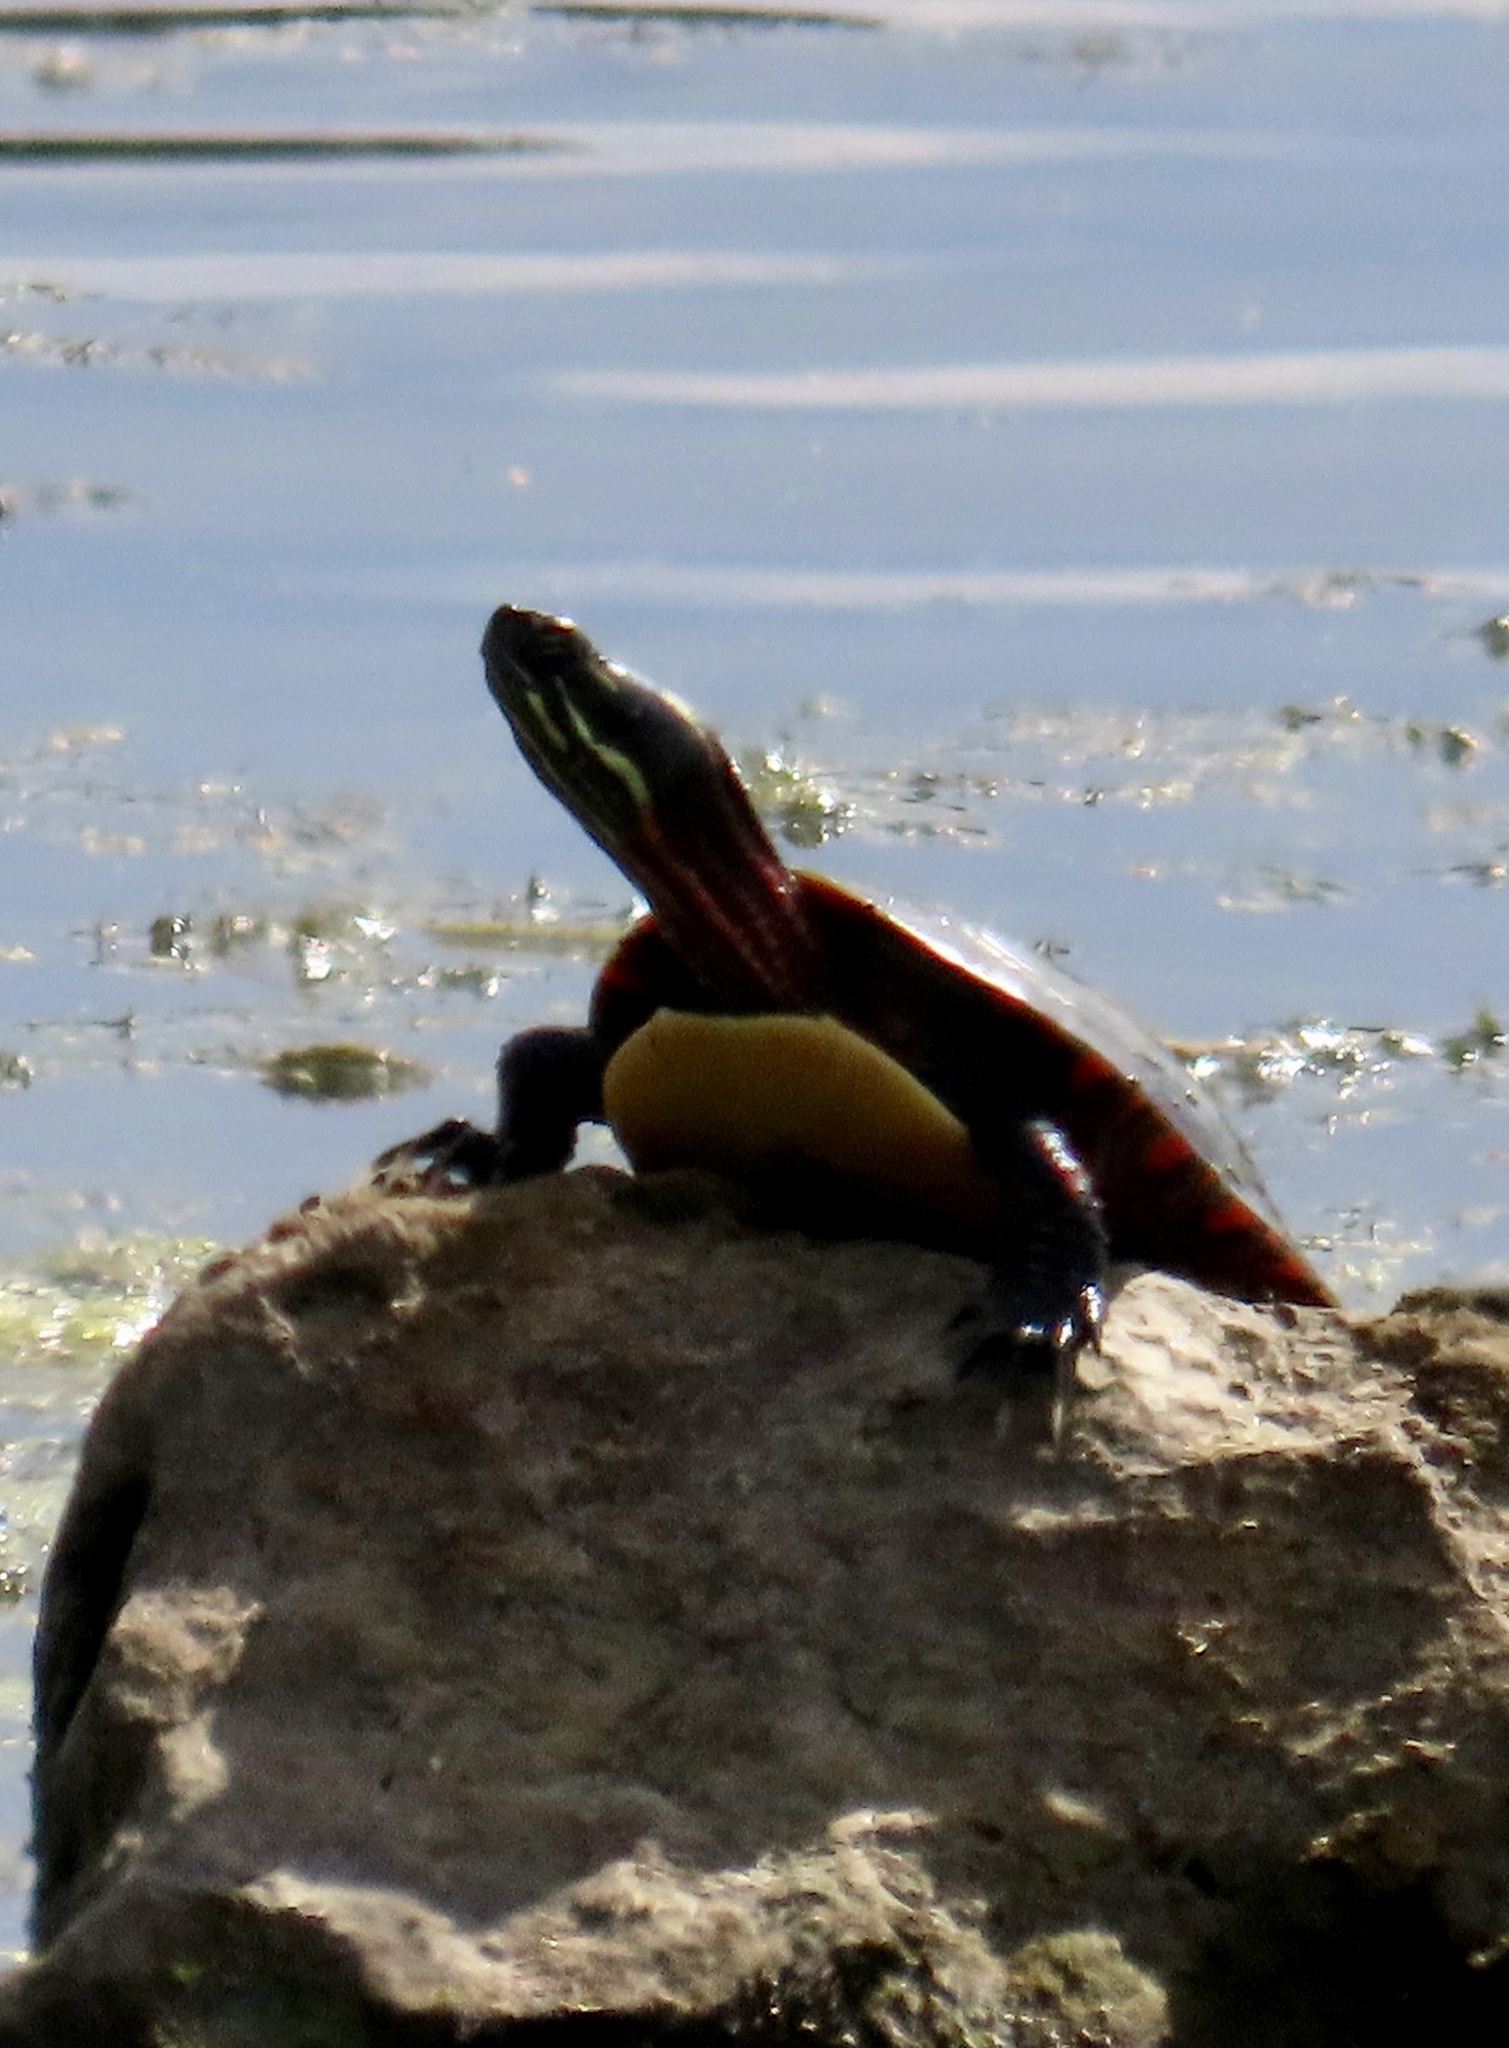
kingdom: Animalia
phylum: Chordata
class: Testudines
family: Emydidae
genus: Chrysemys
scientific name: Chrysemys picta
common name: Painted turtle
